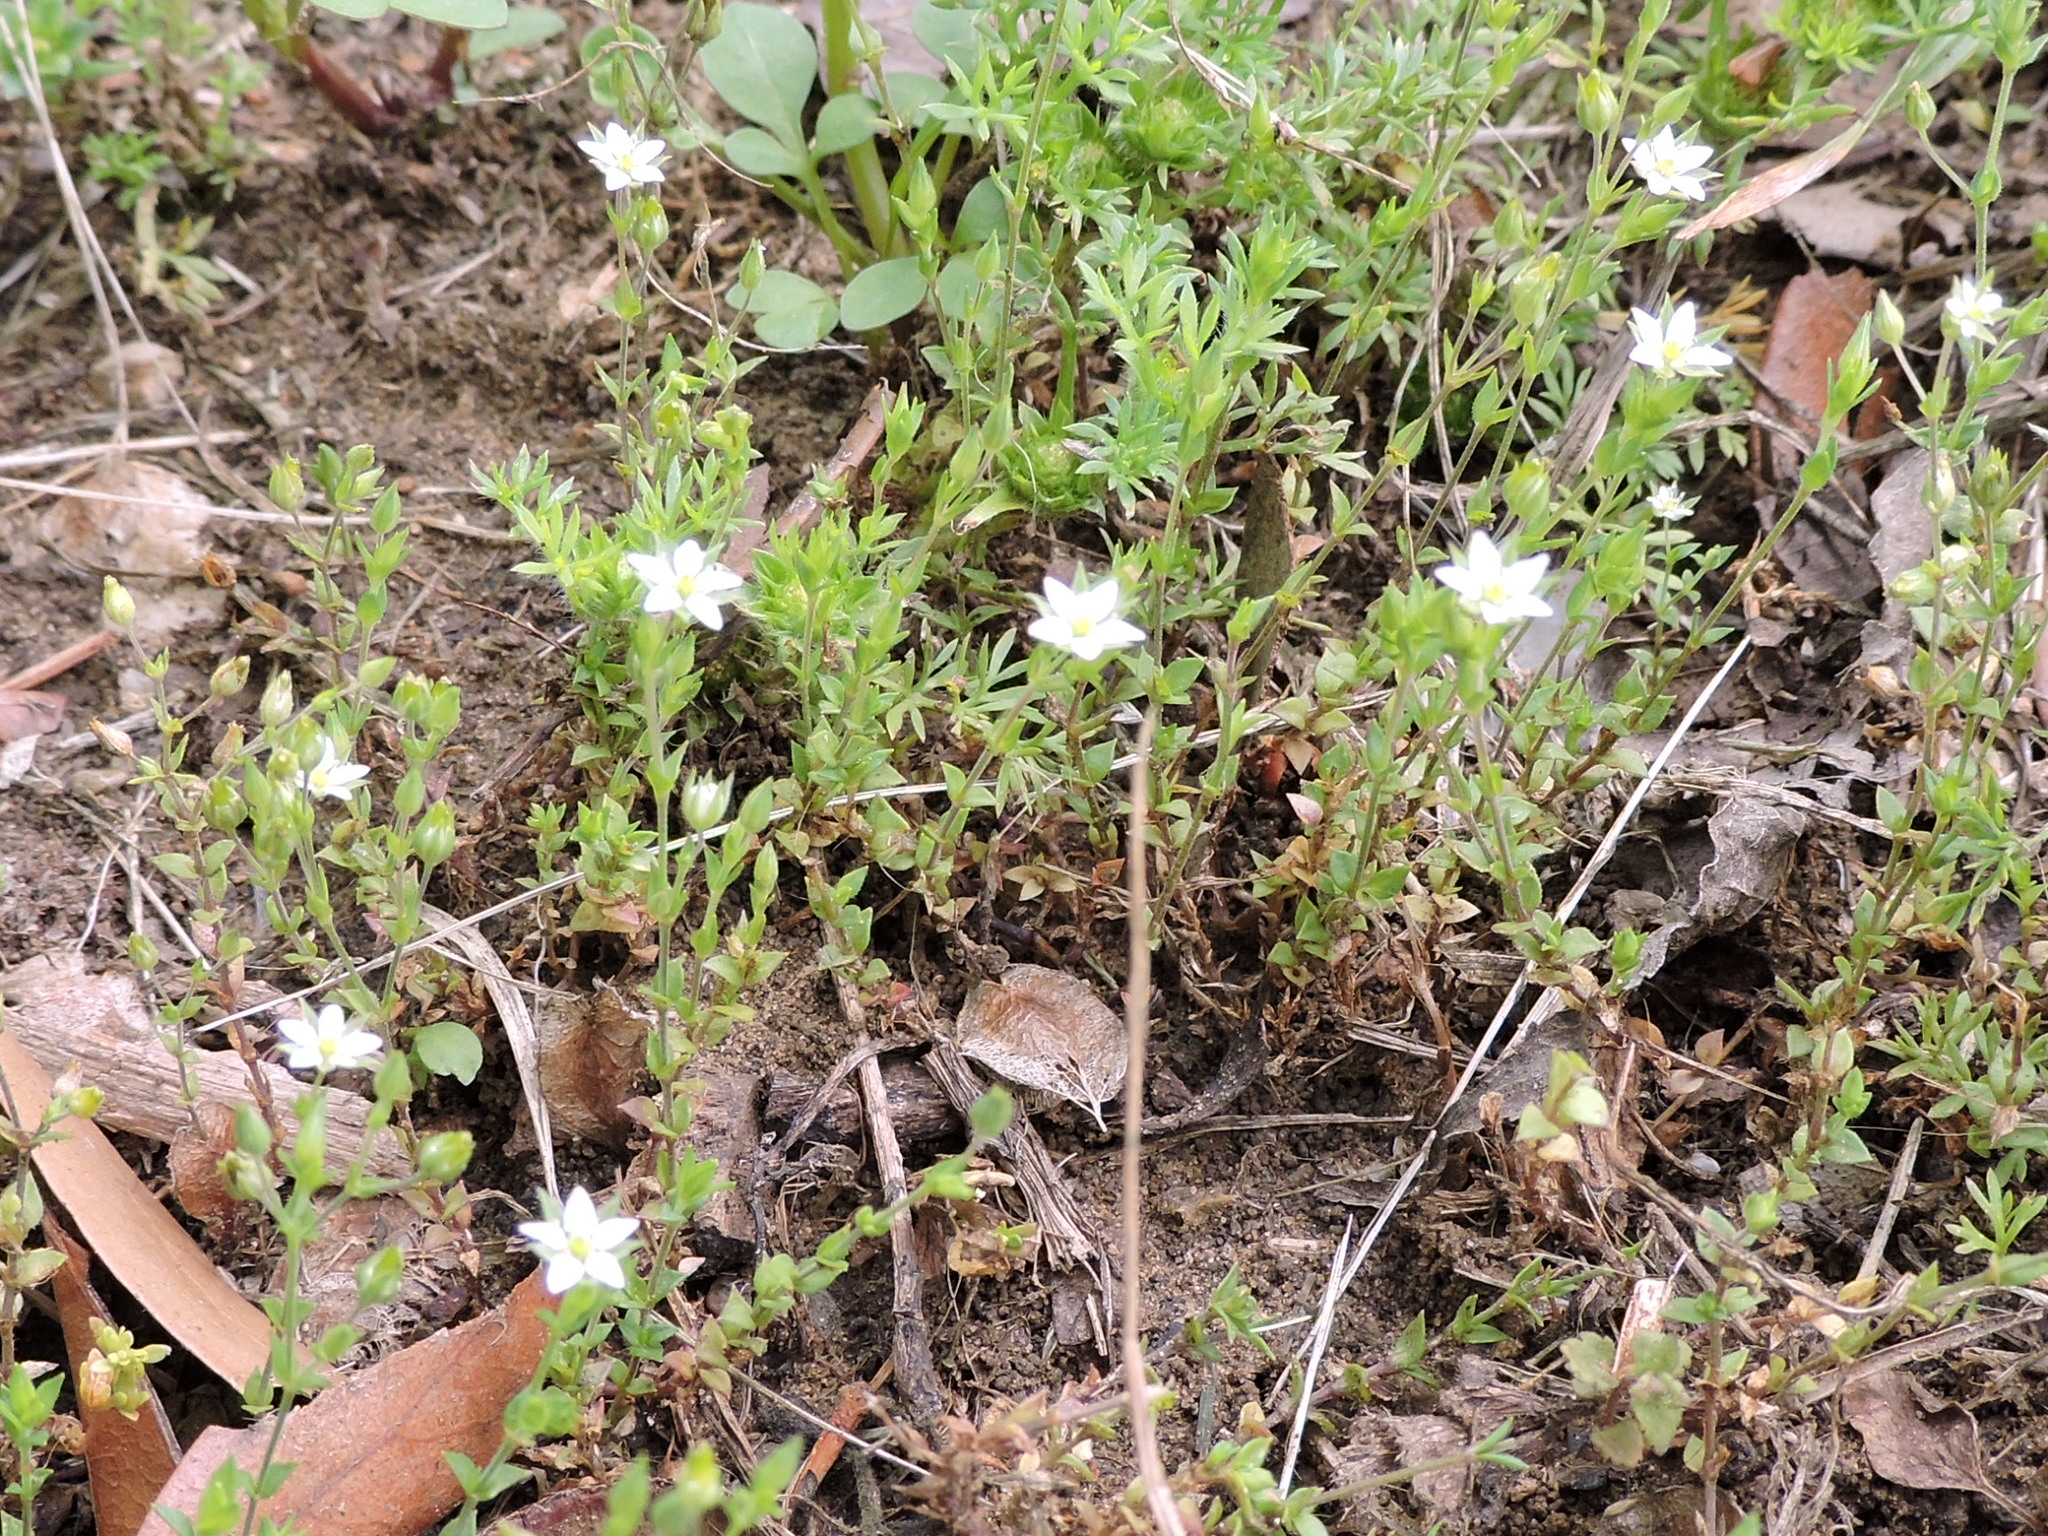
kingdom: Plantae
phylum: Tracheophyta
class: Magnoliopsida
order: Caryophyllales
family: Caryophyllaceae
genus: Arenaria
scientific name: Arenaria serpyllifolia
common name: Thyme-leaved sandwort
